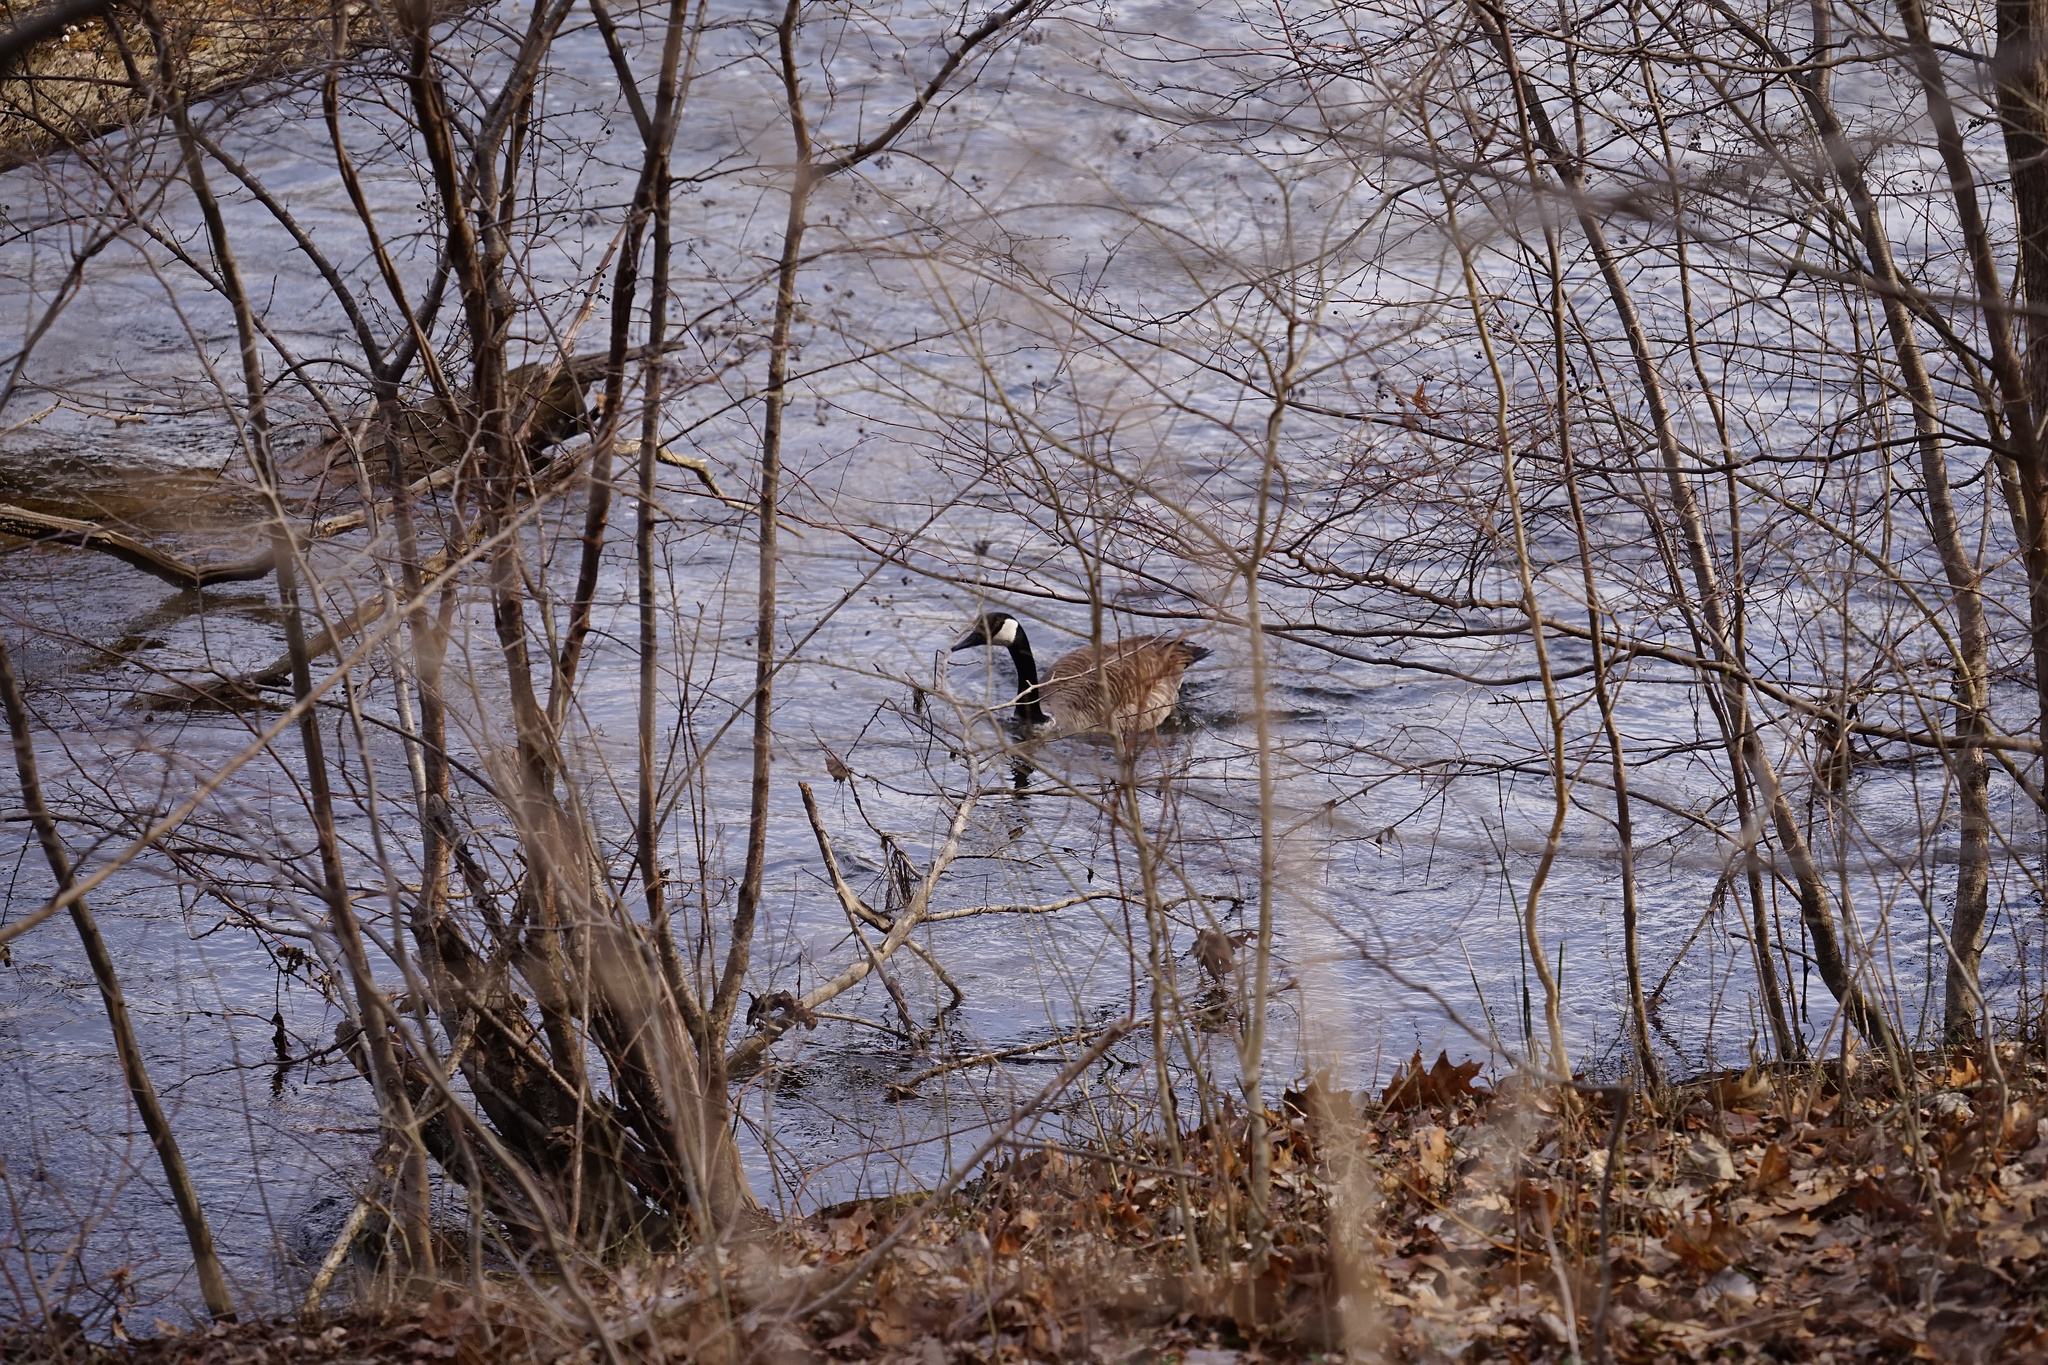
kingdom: Animalia
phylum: Chordata
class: Aves
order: Anseriformes
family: Anatidae
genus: Branta
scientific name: Branta canadensis
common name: Canada goose
